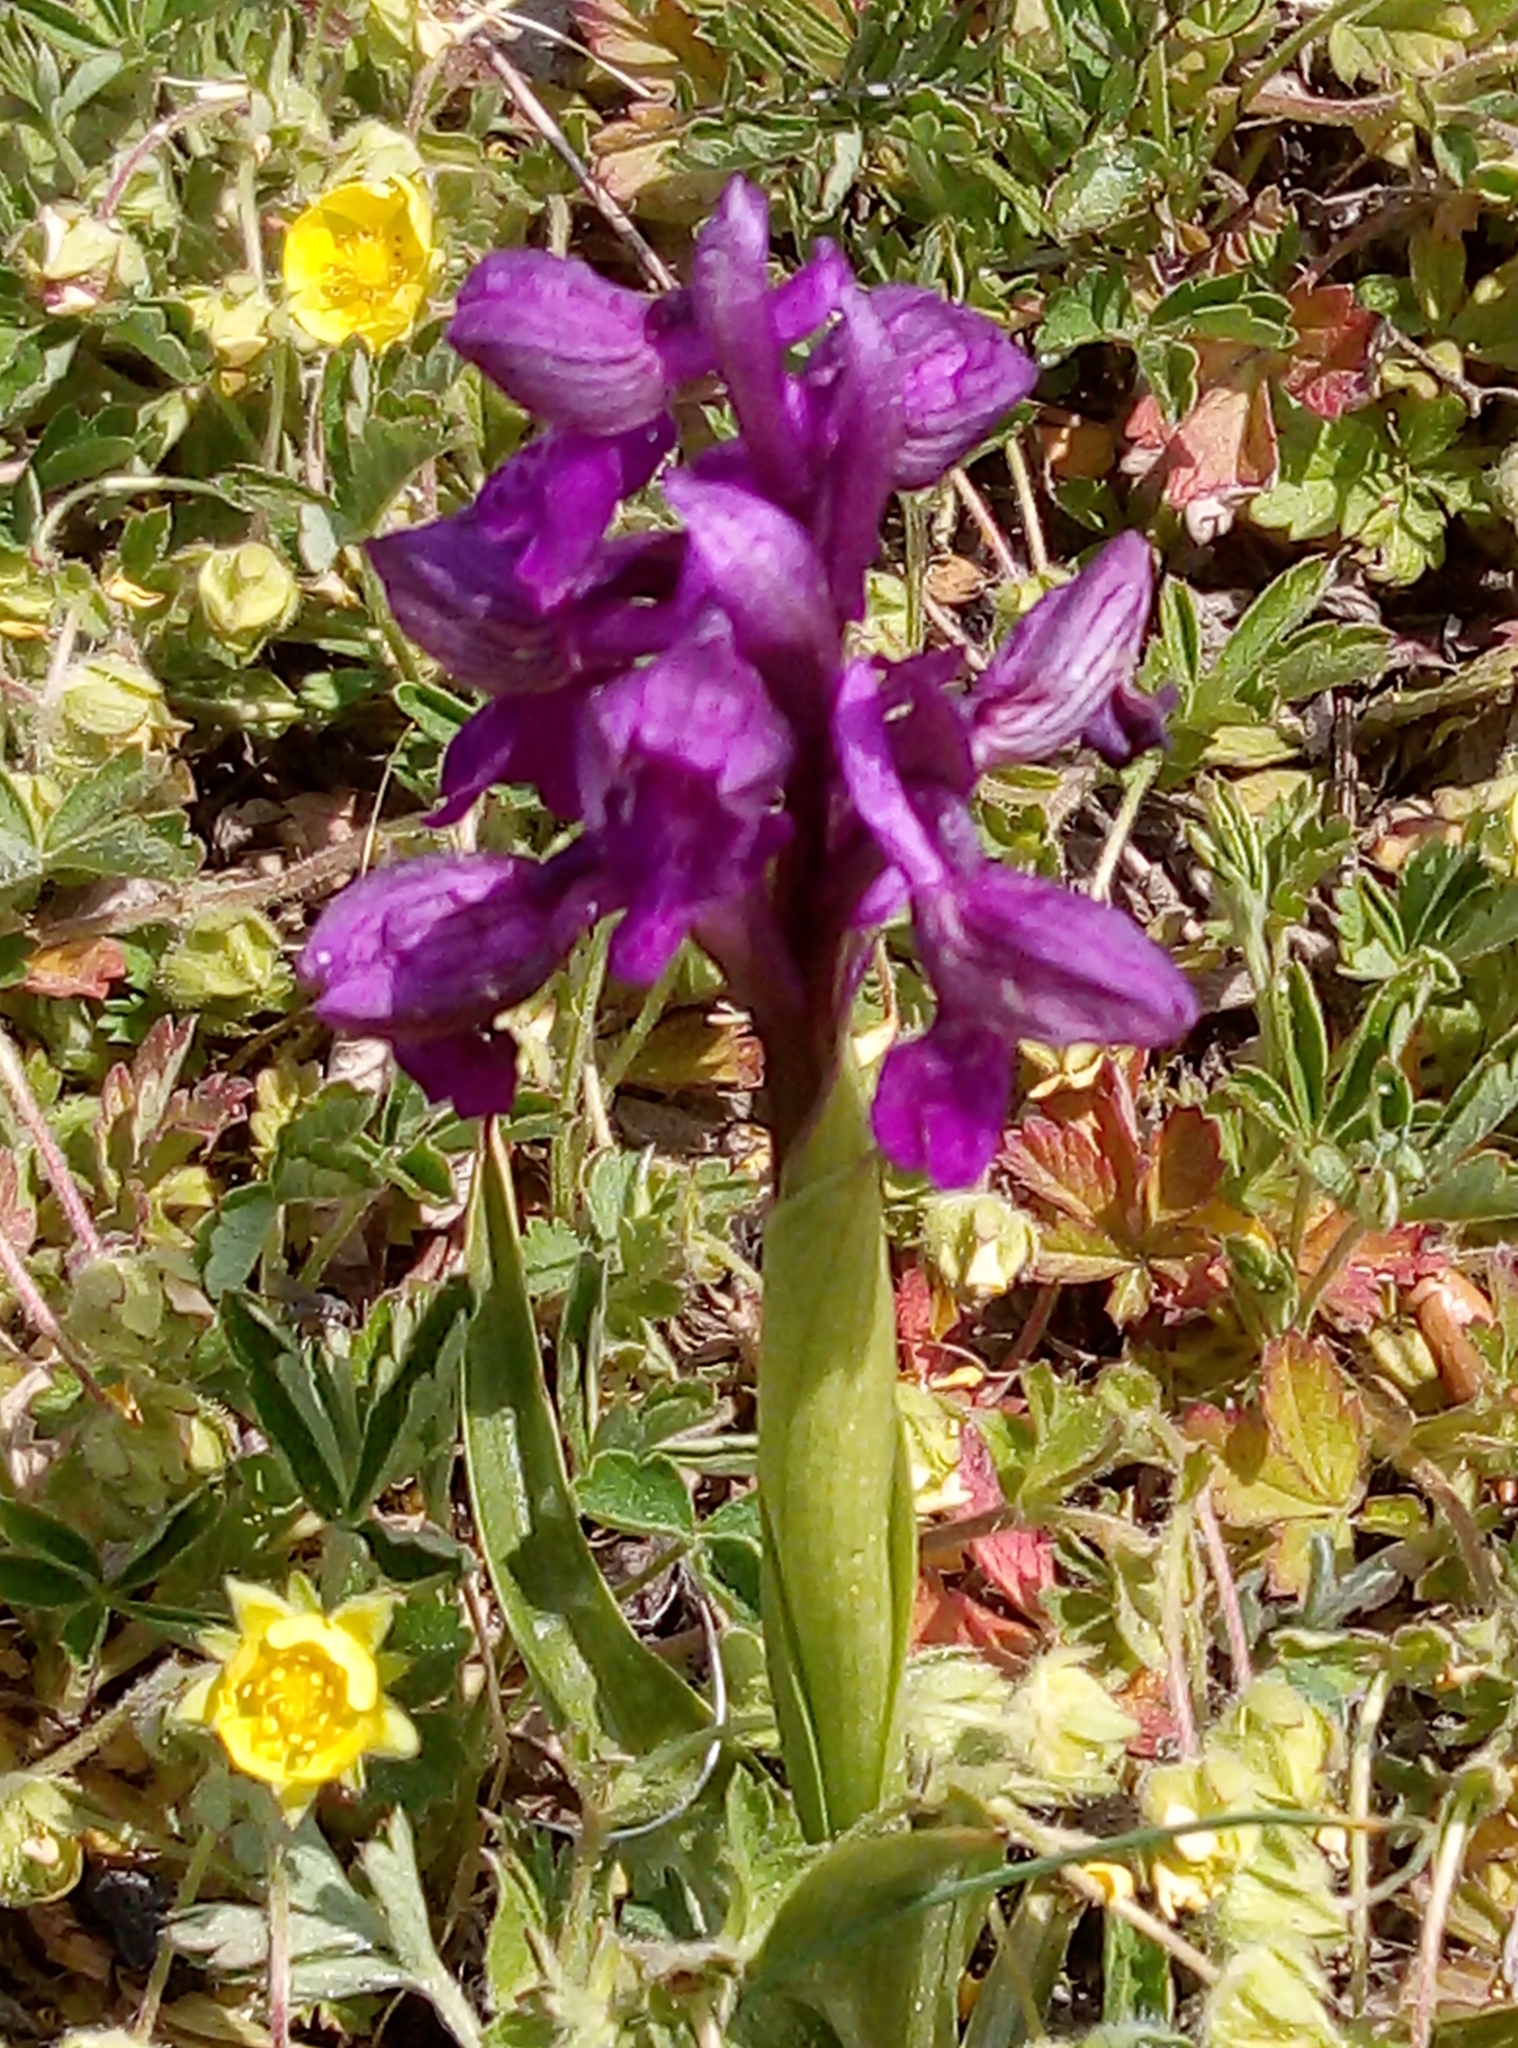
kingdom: Plantae
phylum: Tracheophyta
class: Liliopsida
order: Asparagales
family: Orchidaceae
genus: Anacamptis
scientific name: Anacamptis morio
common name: Green-winged orchid
